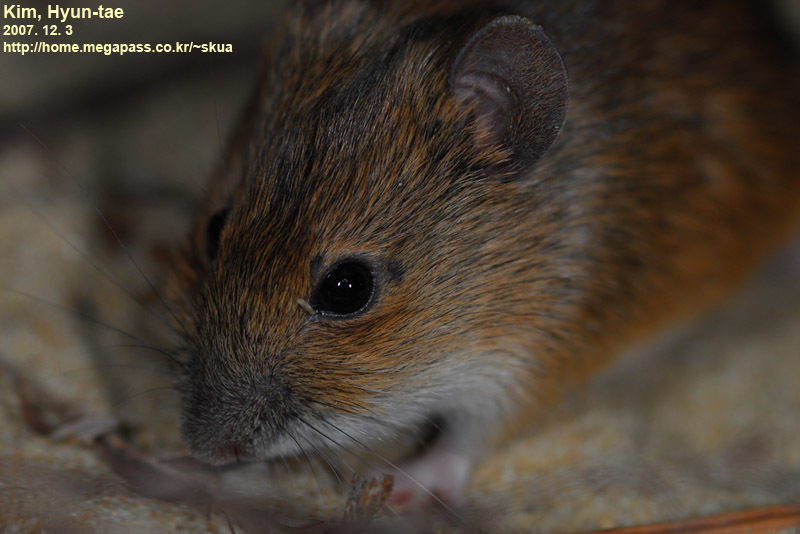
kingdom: Animalia
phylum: Chordata
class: Mammalia
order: Rodentia
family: Muridae
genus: Apodemus
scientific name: Apodemus agrarius
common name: Striped field mouse
